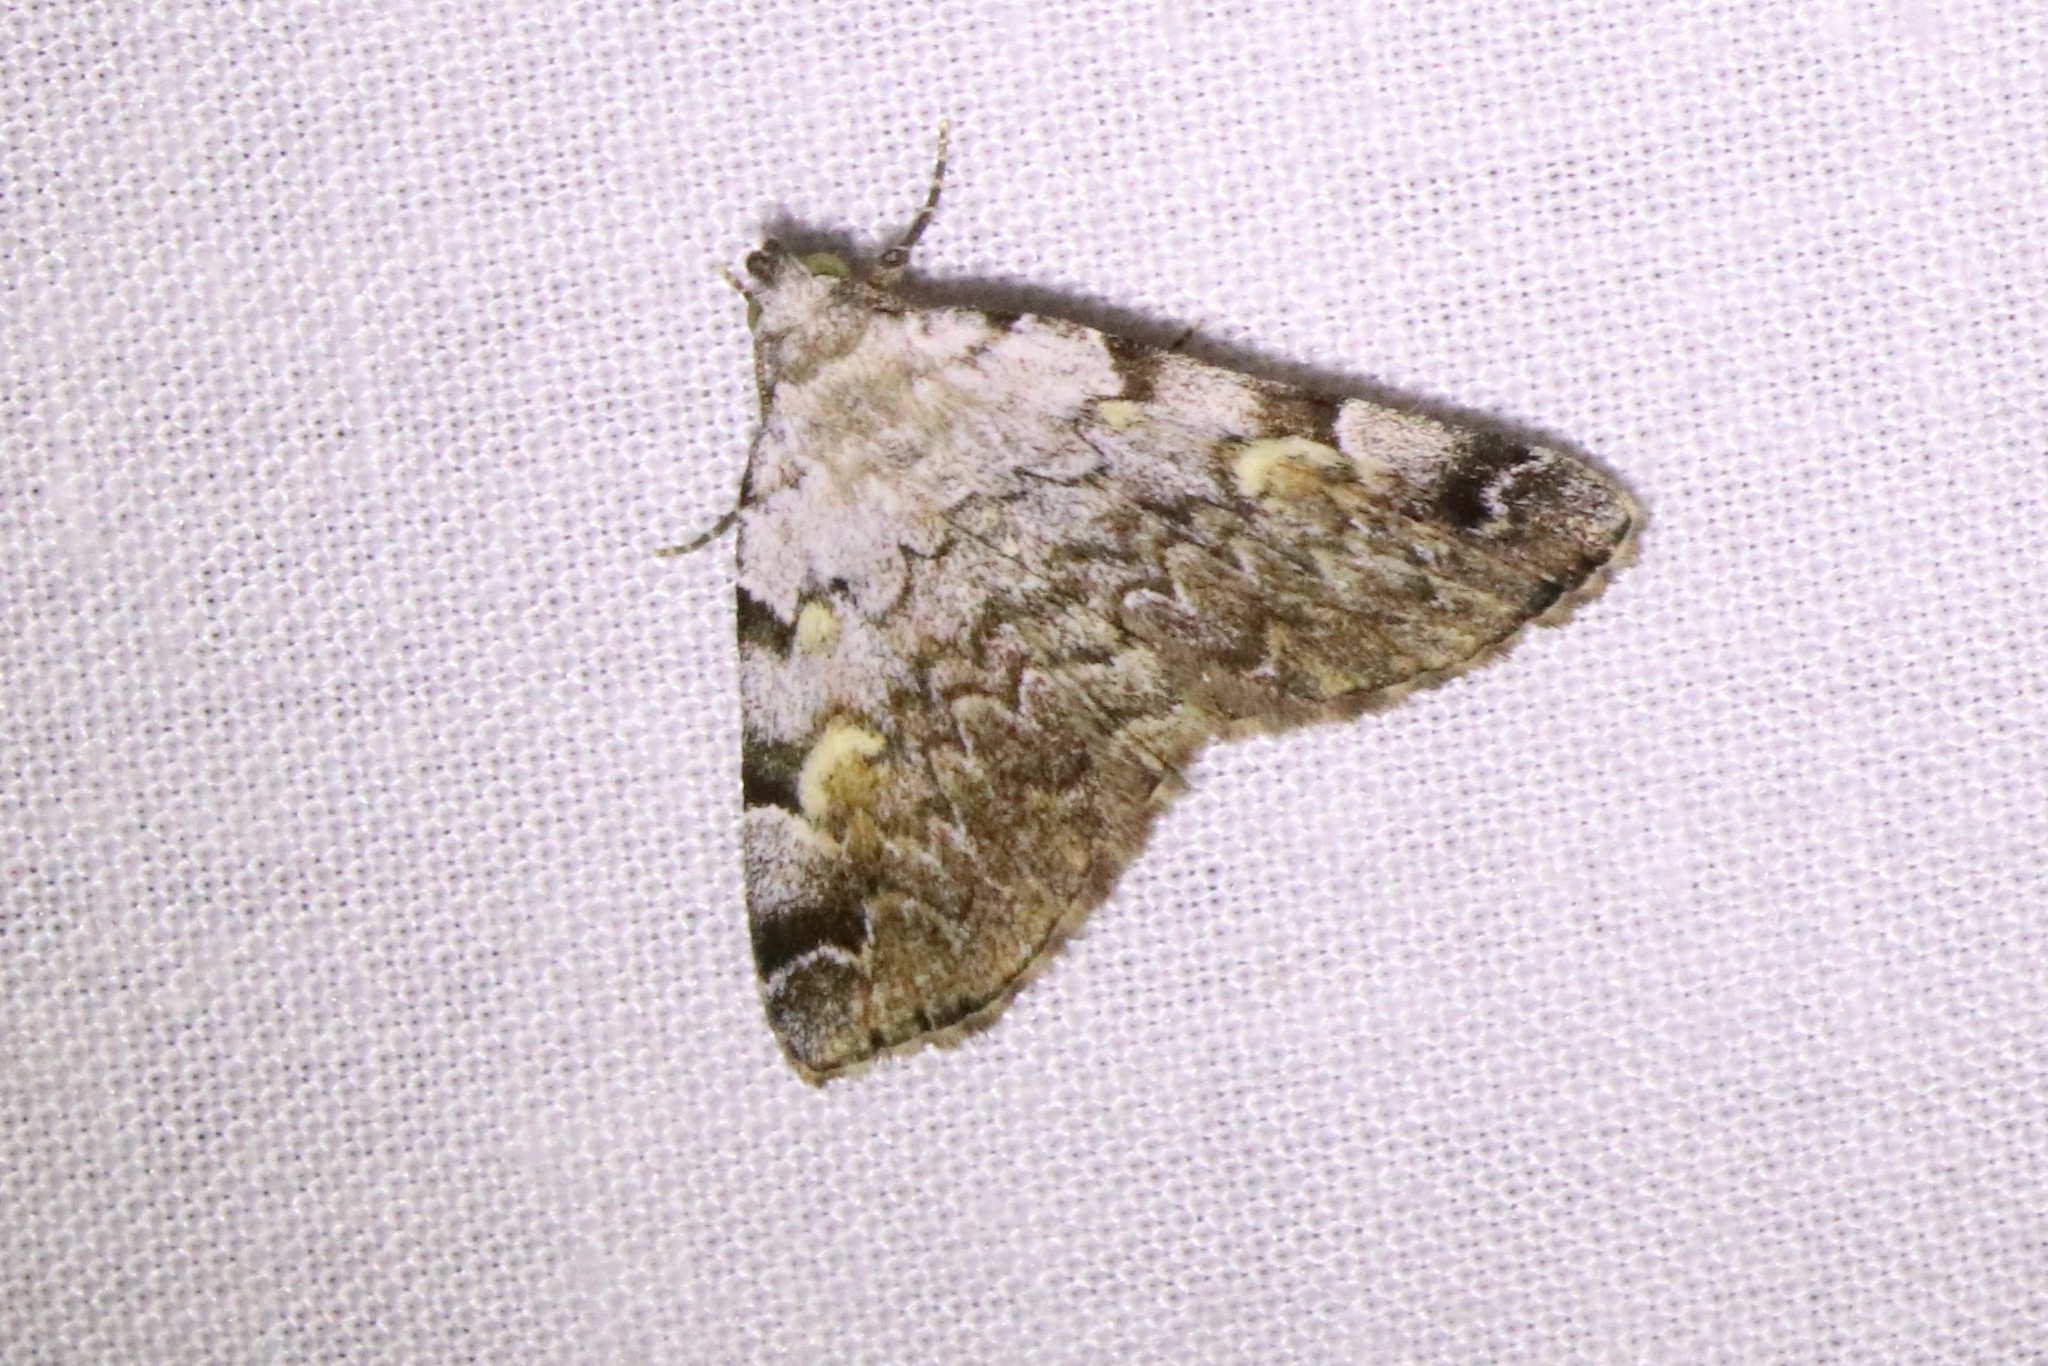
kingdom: Animalia
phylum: Arthropoda
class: Insecta
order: Lepidoptera
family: Erebidae
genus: Idia
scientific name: Idia americalis
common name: American idia moth
